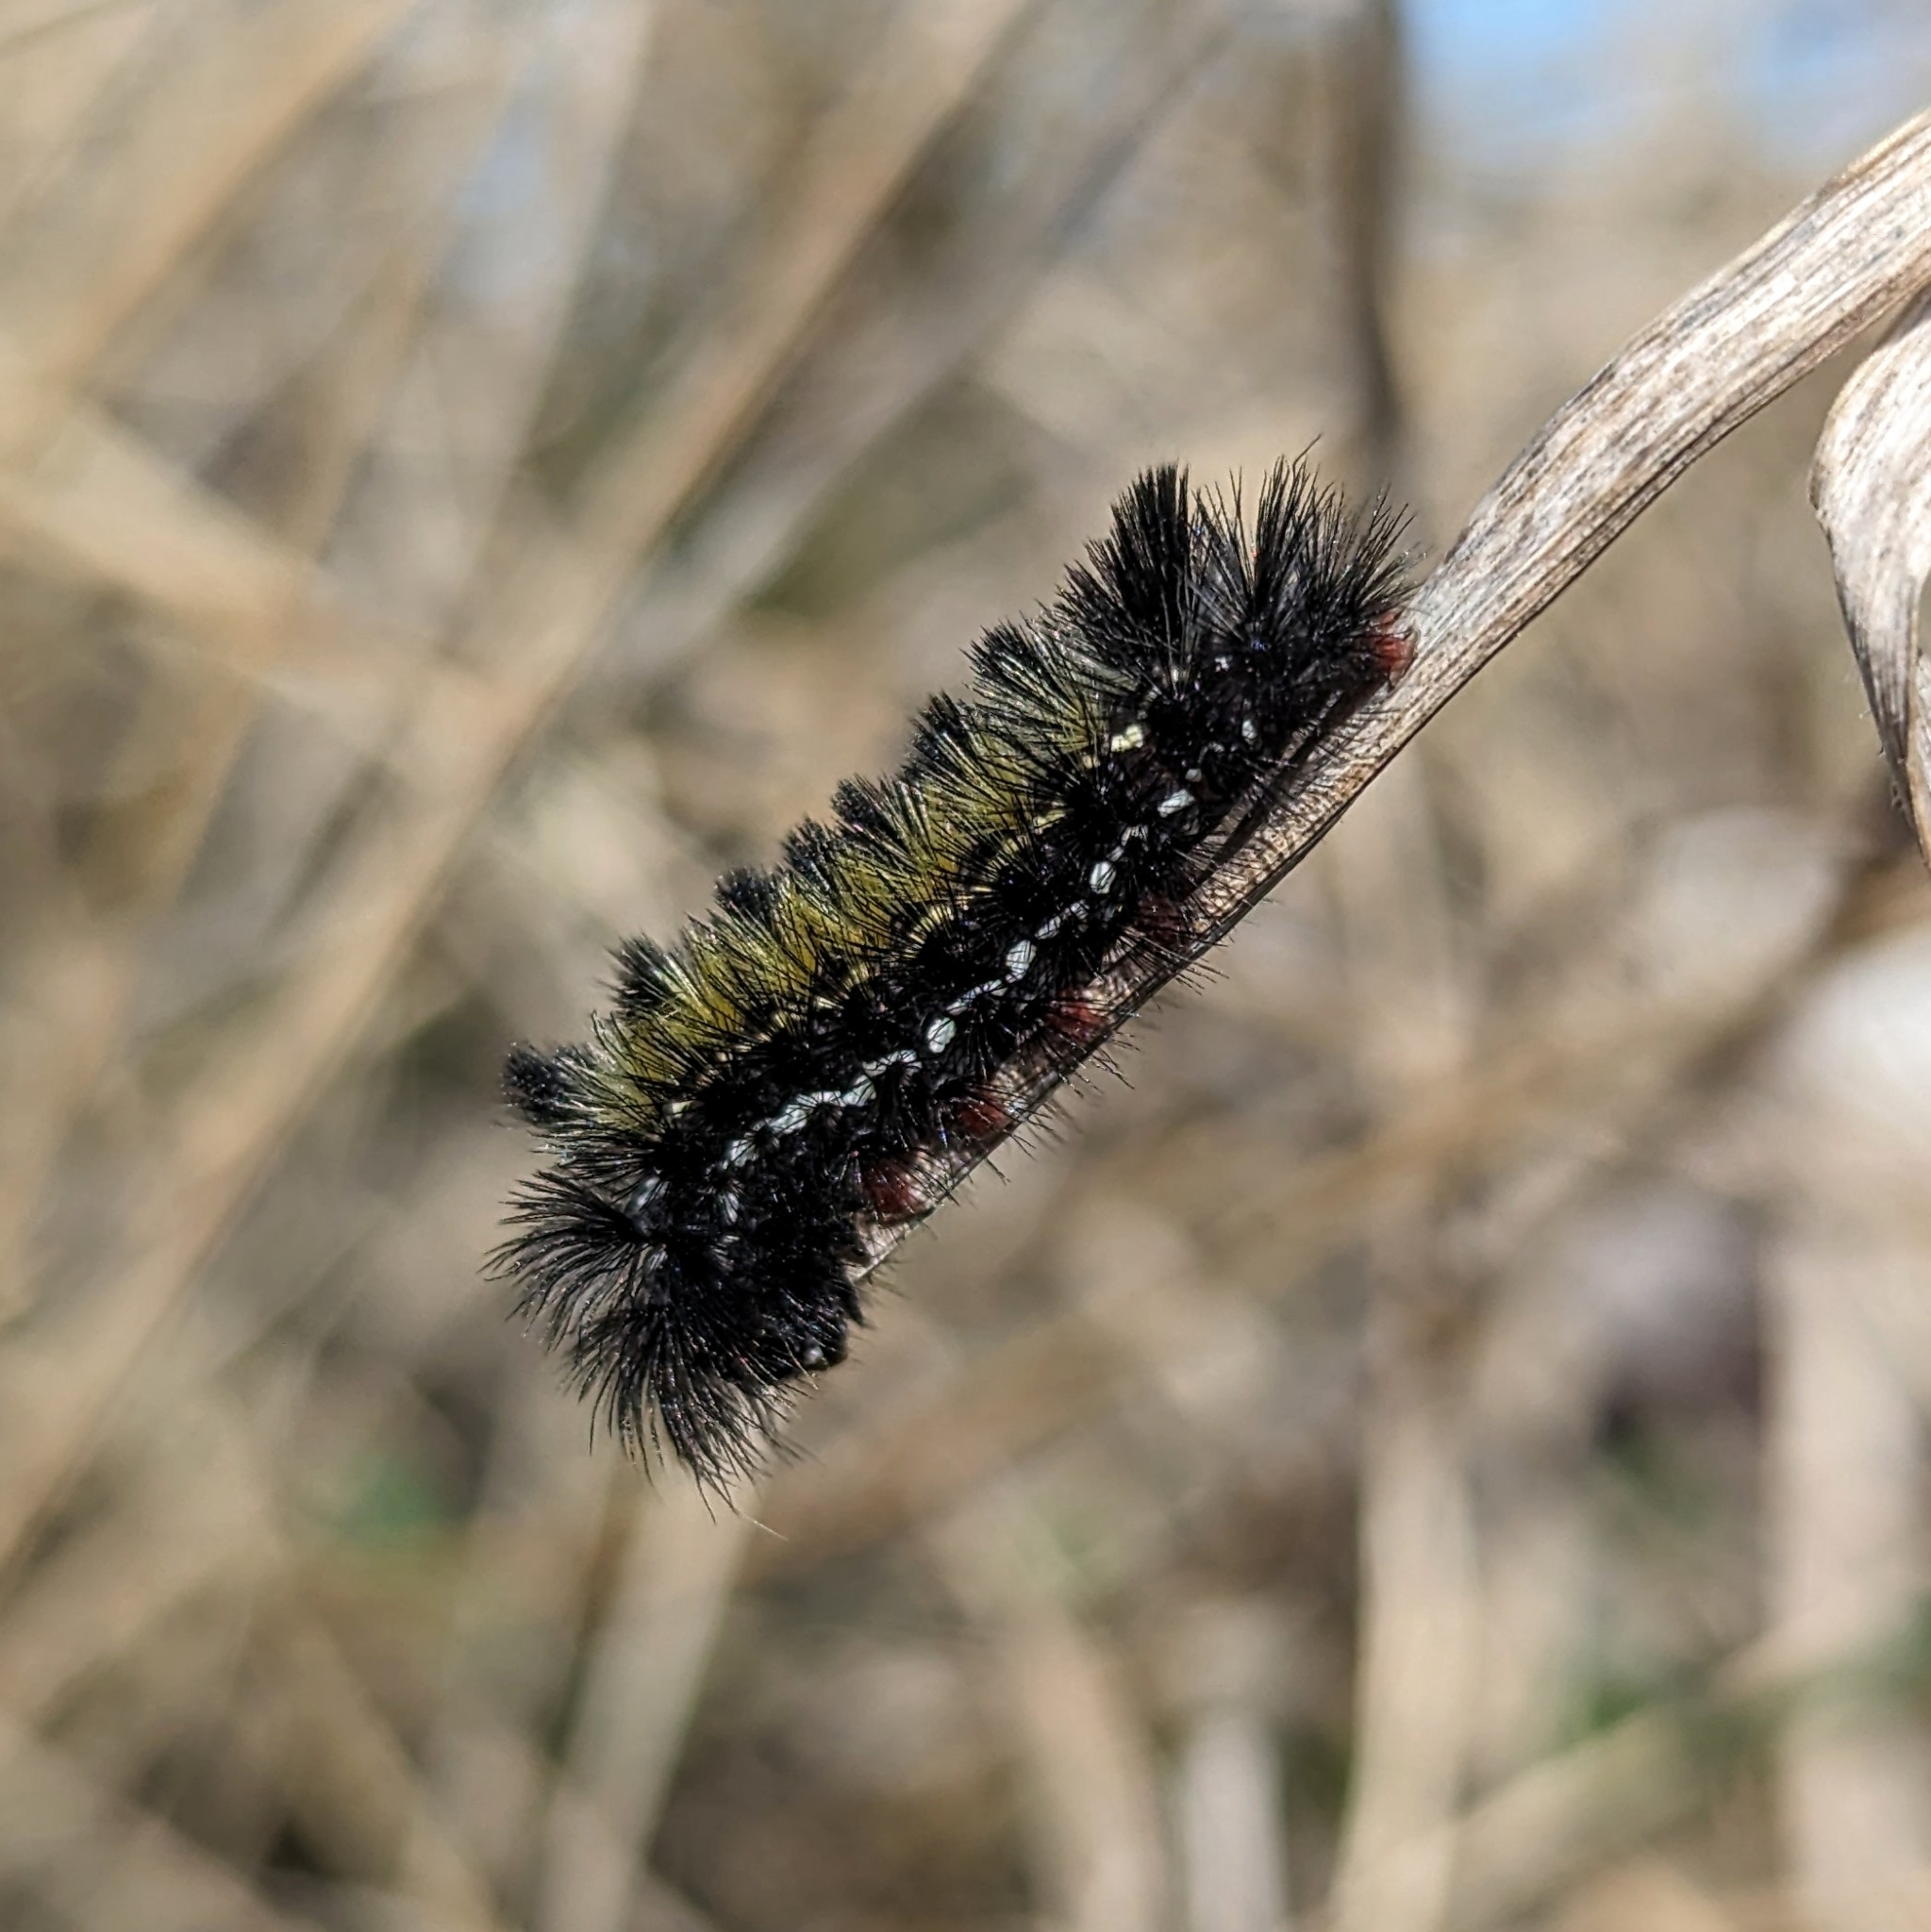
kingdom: Animalia
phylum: Arthropoda
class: Insecta
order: Lepidoptera
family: Erebidae
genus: Ctenucha
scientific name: Ctenucha virginica
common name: Virginia ctenucha moth
